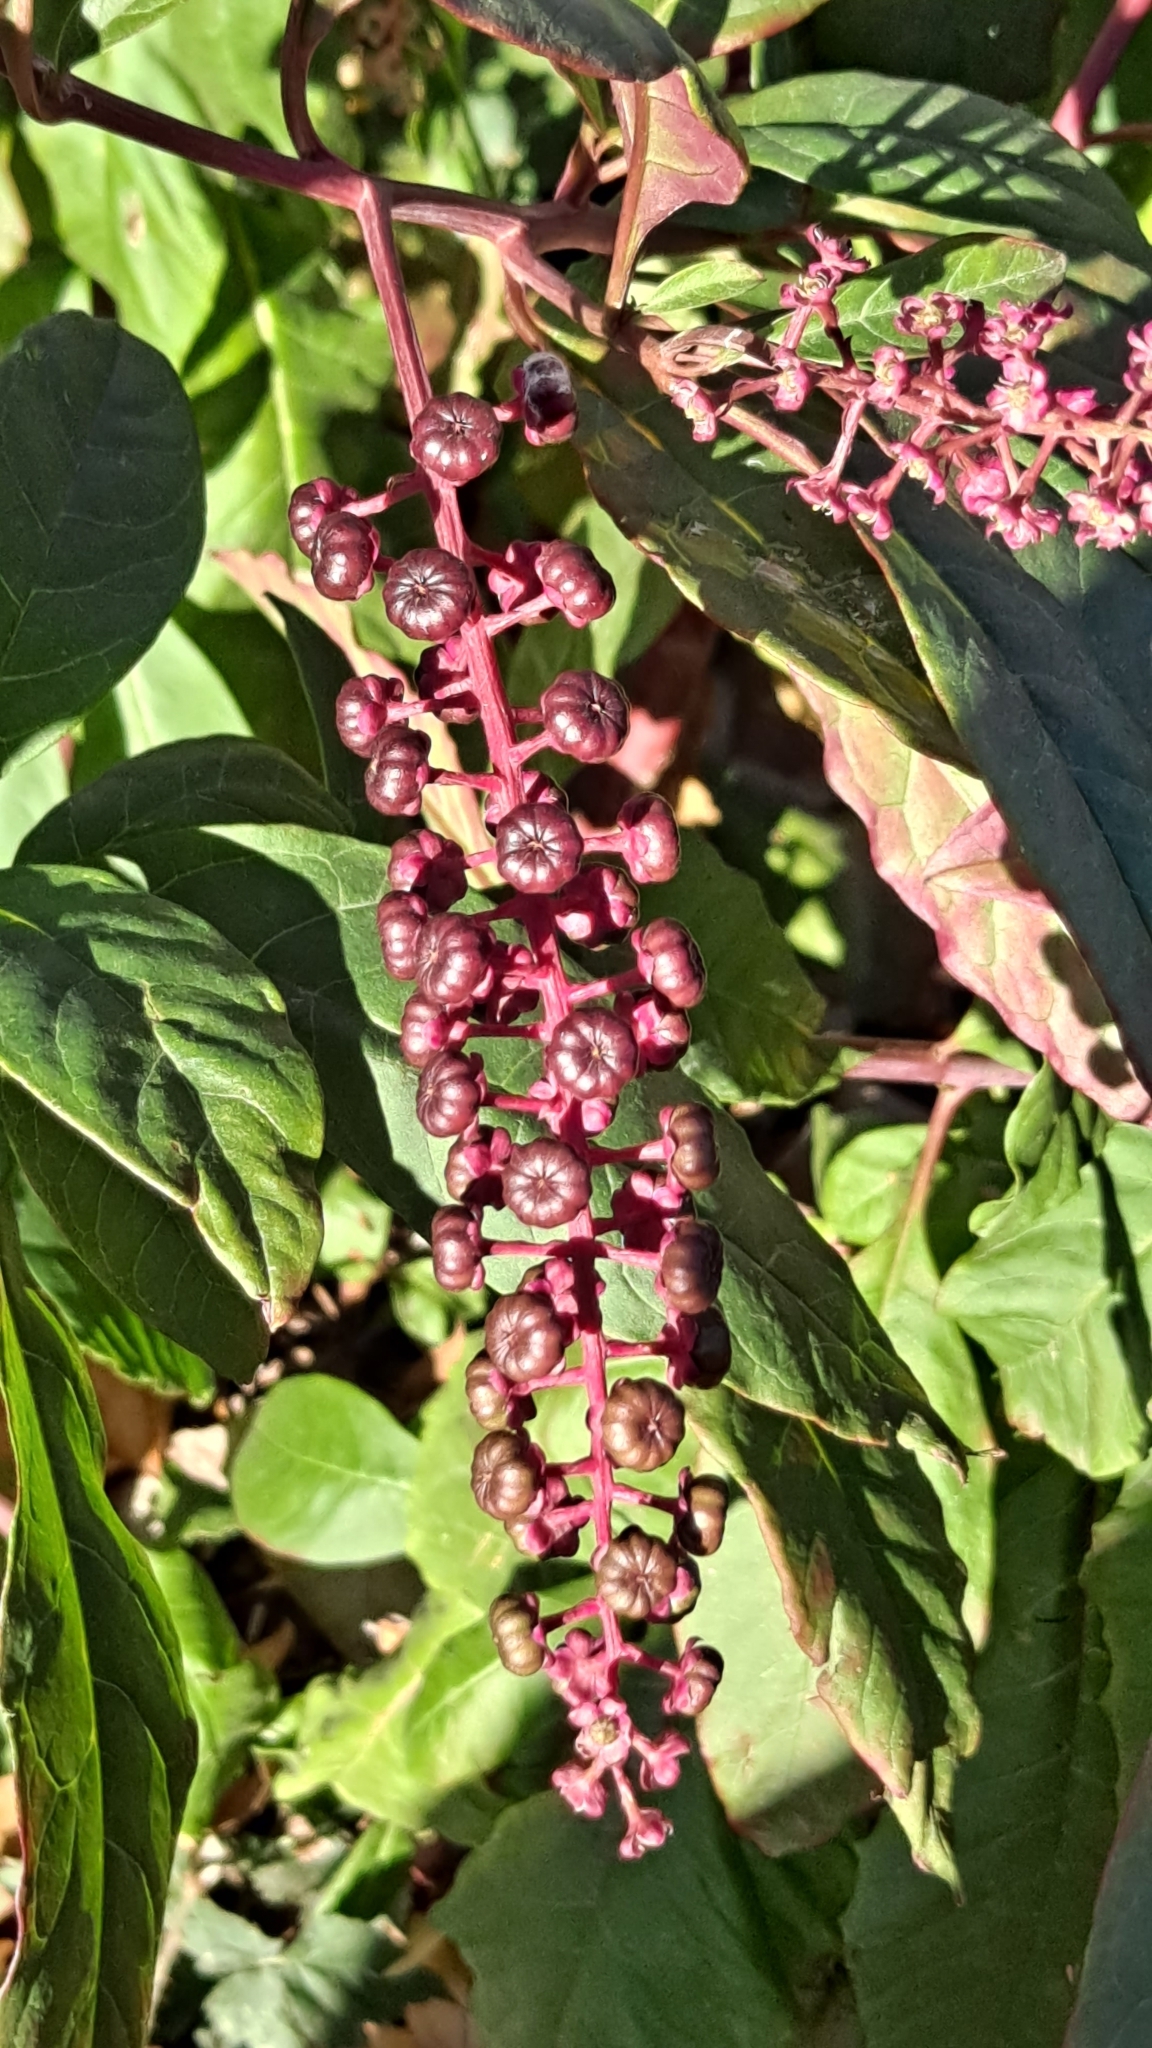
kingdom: Plantae
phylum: Tracheophyta
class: Magnoliopsida
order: Caryophyllales
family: Phytolaccaceae
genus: Phytolacca
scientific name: Phytolacca americana
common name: American pokeweed
